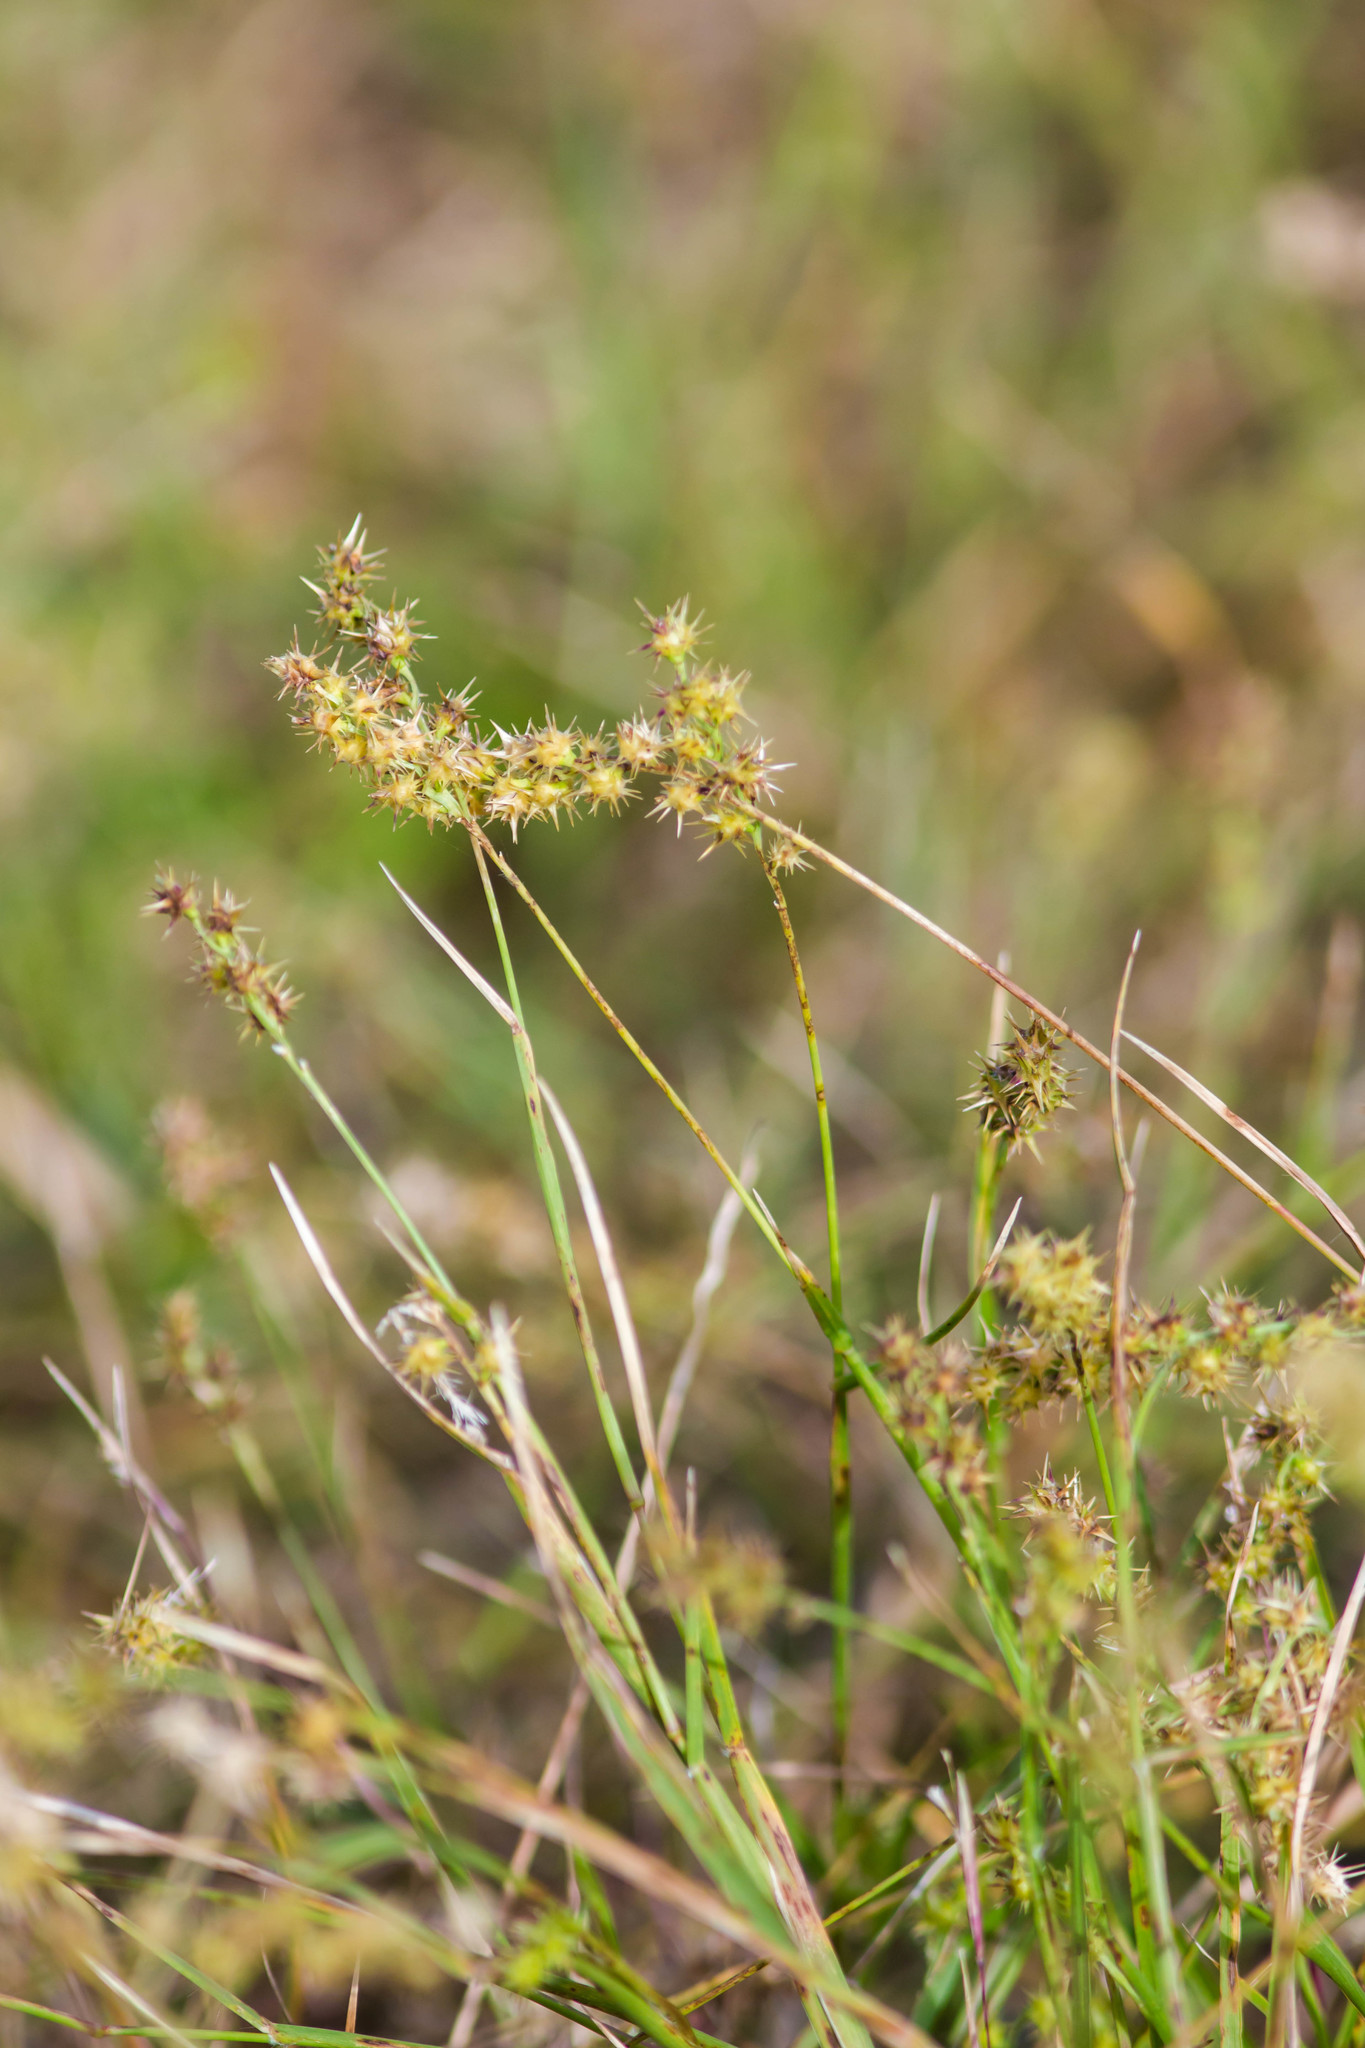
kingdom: Plantae
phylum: Tracheophyta
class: Liliopsida
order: Poales
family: Poaceae
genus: Cenchrus
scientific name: Cenchrus spinifex
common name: Coast sandbur
